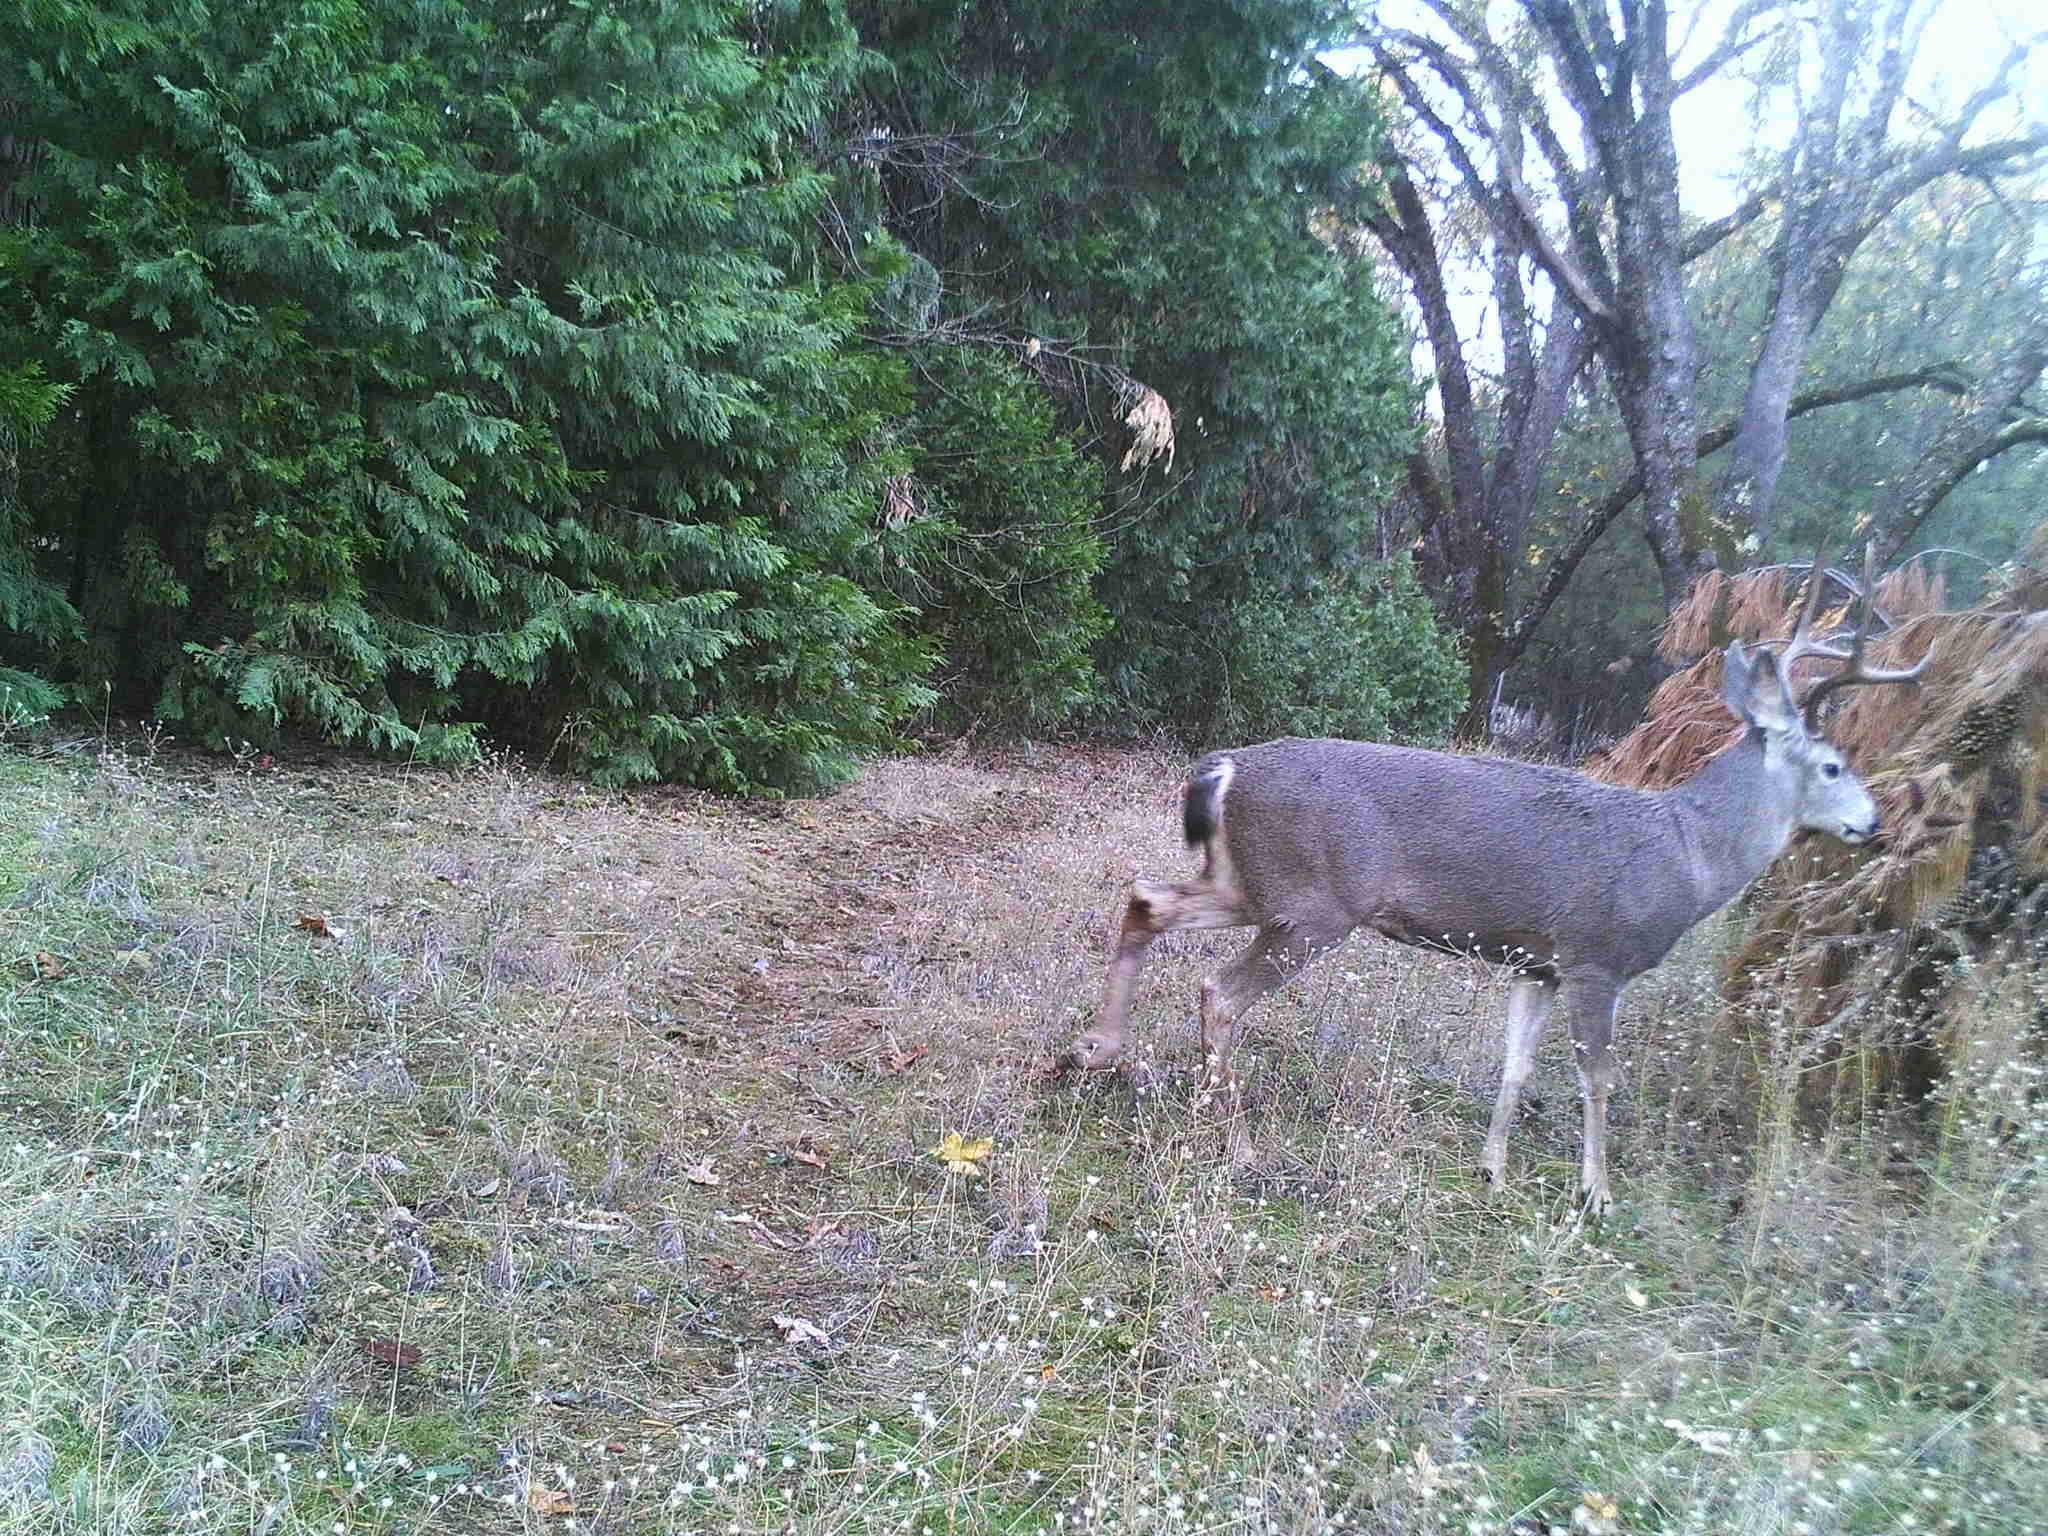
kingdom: Animalia
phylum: Chordata
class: Mammalia
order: Artiodactyla
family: Cervidae
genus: Odocoileus
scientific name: Odocoileus hemionus
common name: Mule deer
